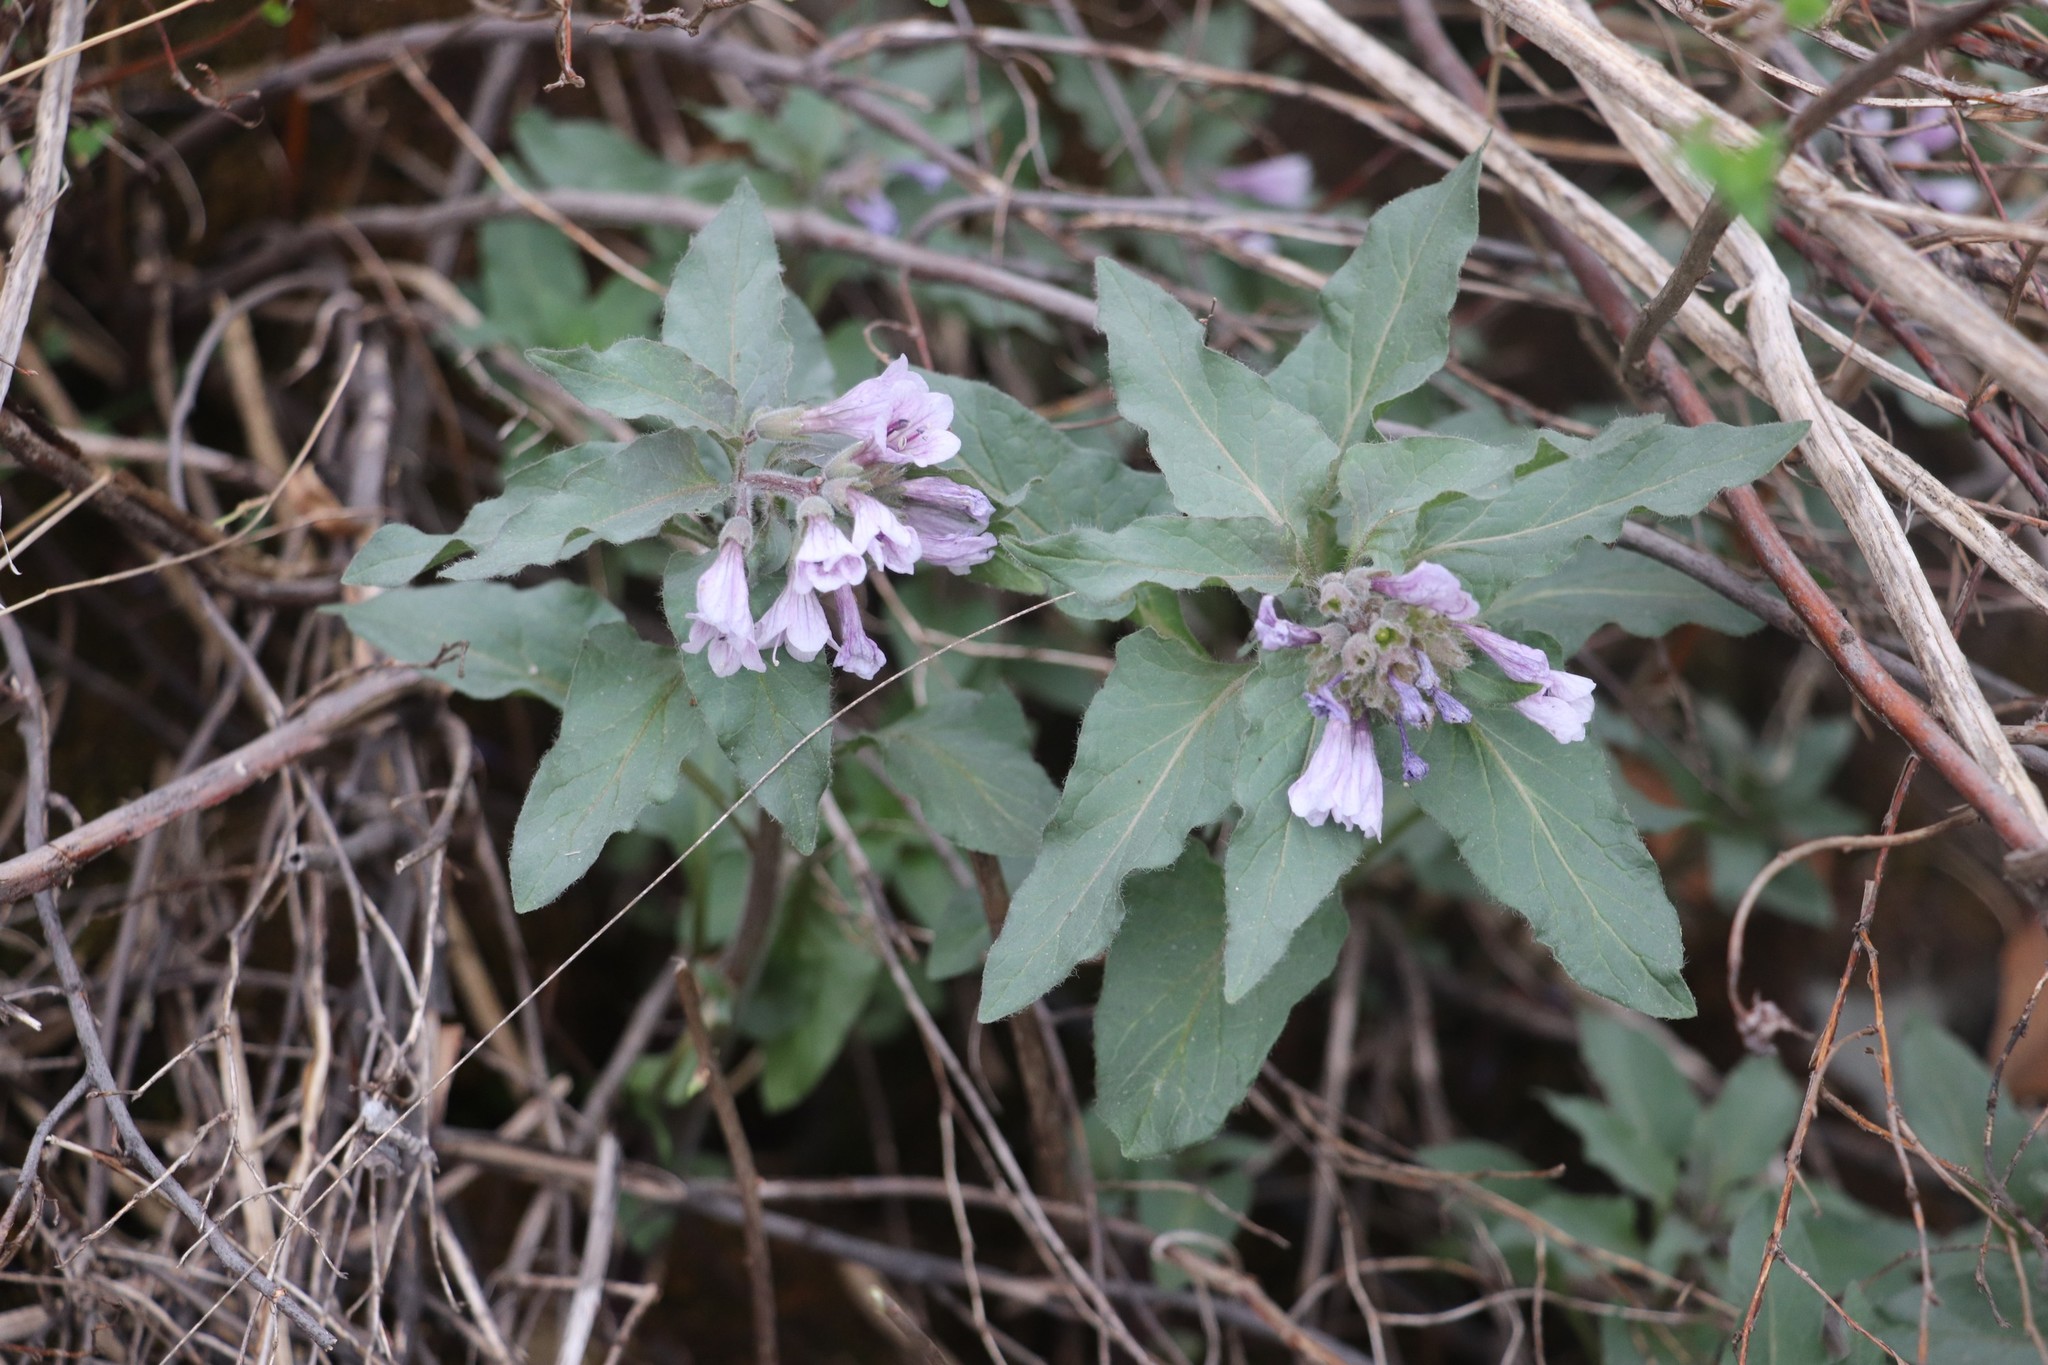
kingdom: Plantae
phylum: Tracheophyta
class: Magnoliopsida
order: Solanales
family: Solanaceae
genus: Physochlaina
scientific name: Physochlaina physaloides
